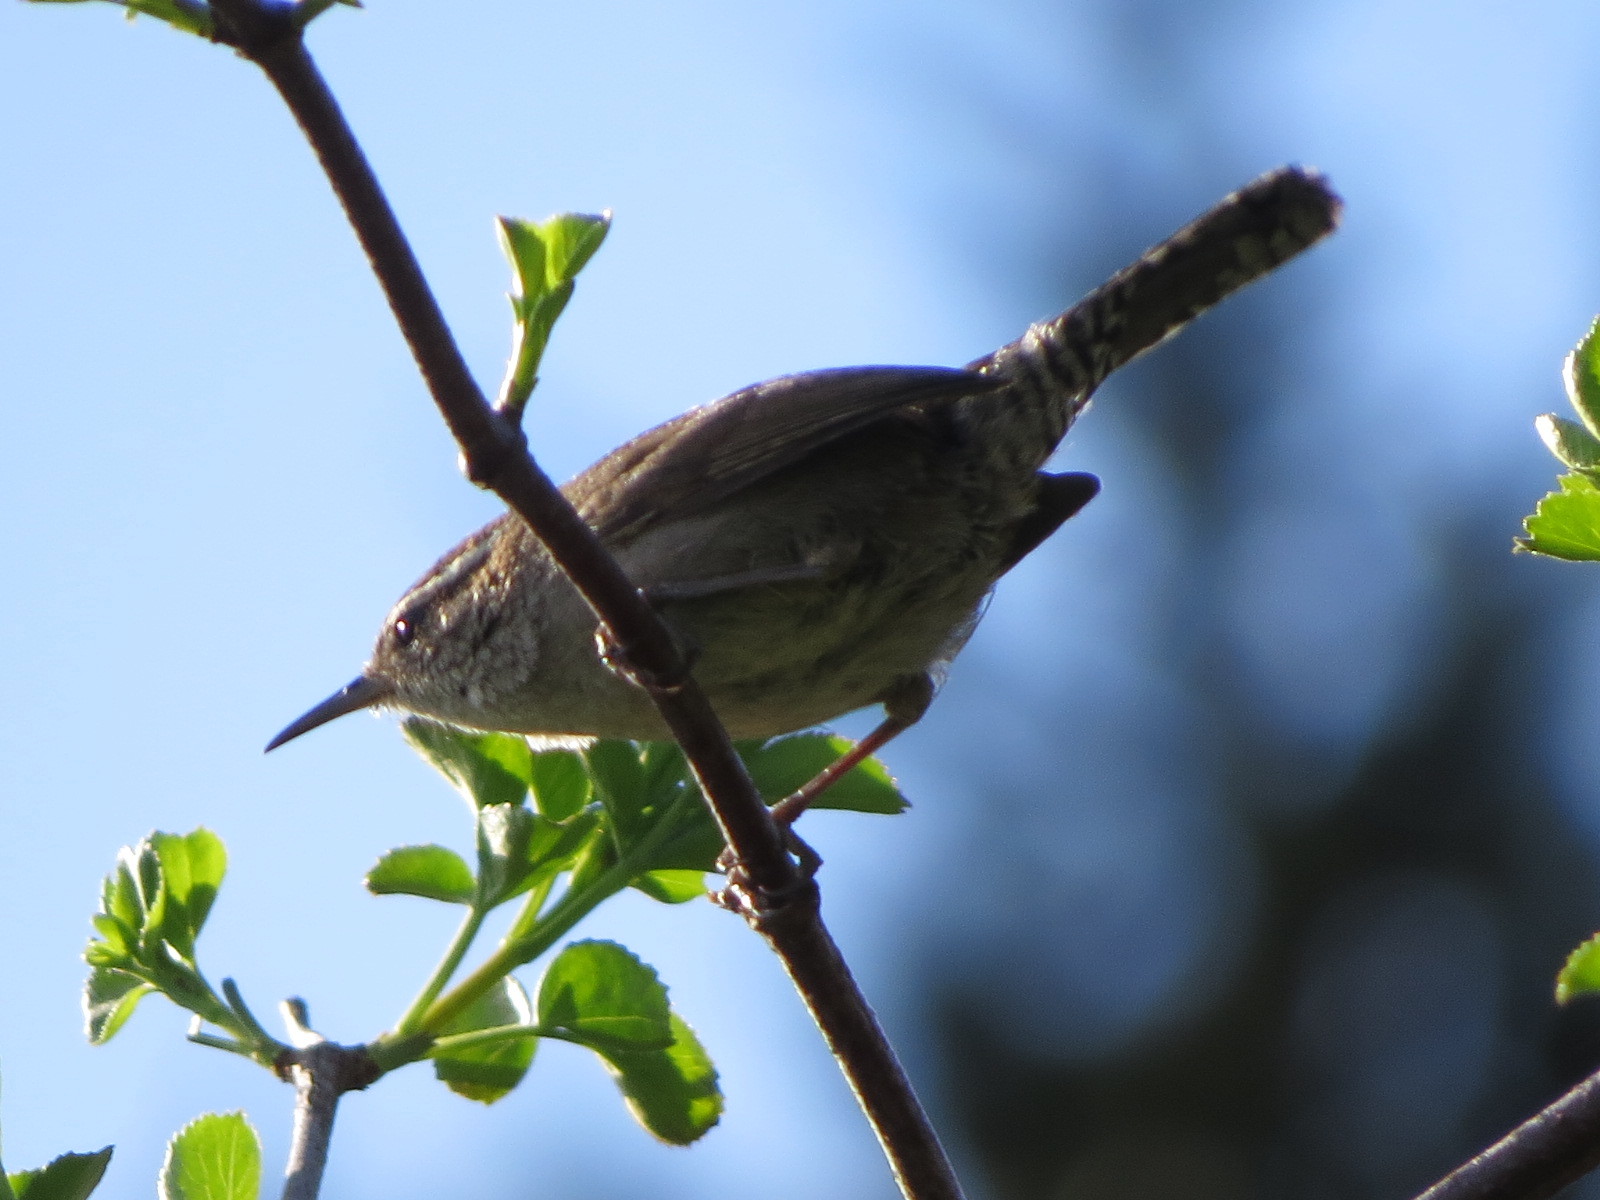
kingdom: Animalia
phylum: Chordata
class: Aves
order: Passeriformes
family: Troglodytidae
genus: Thryomanes
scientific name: Thryomanes bewickii
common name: Bewick's wren
